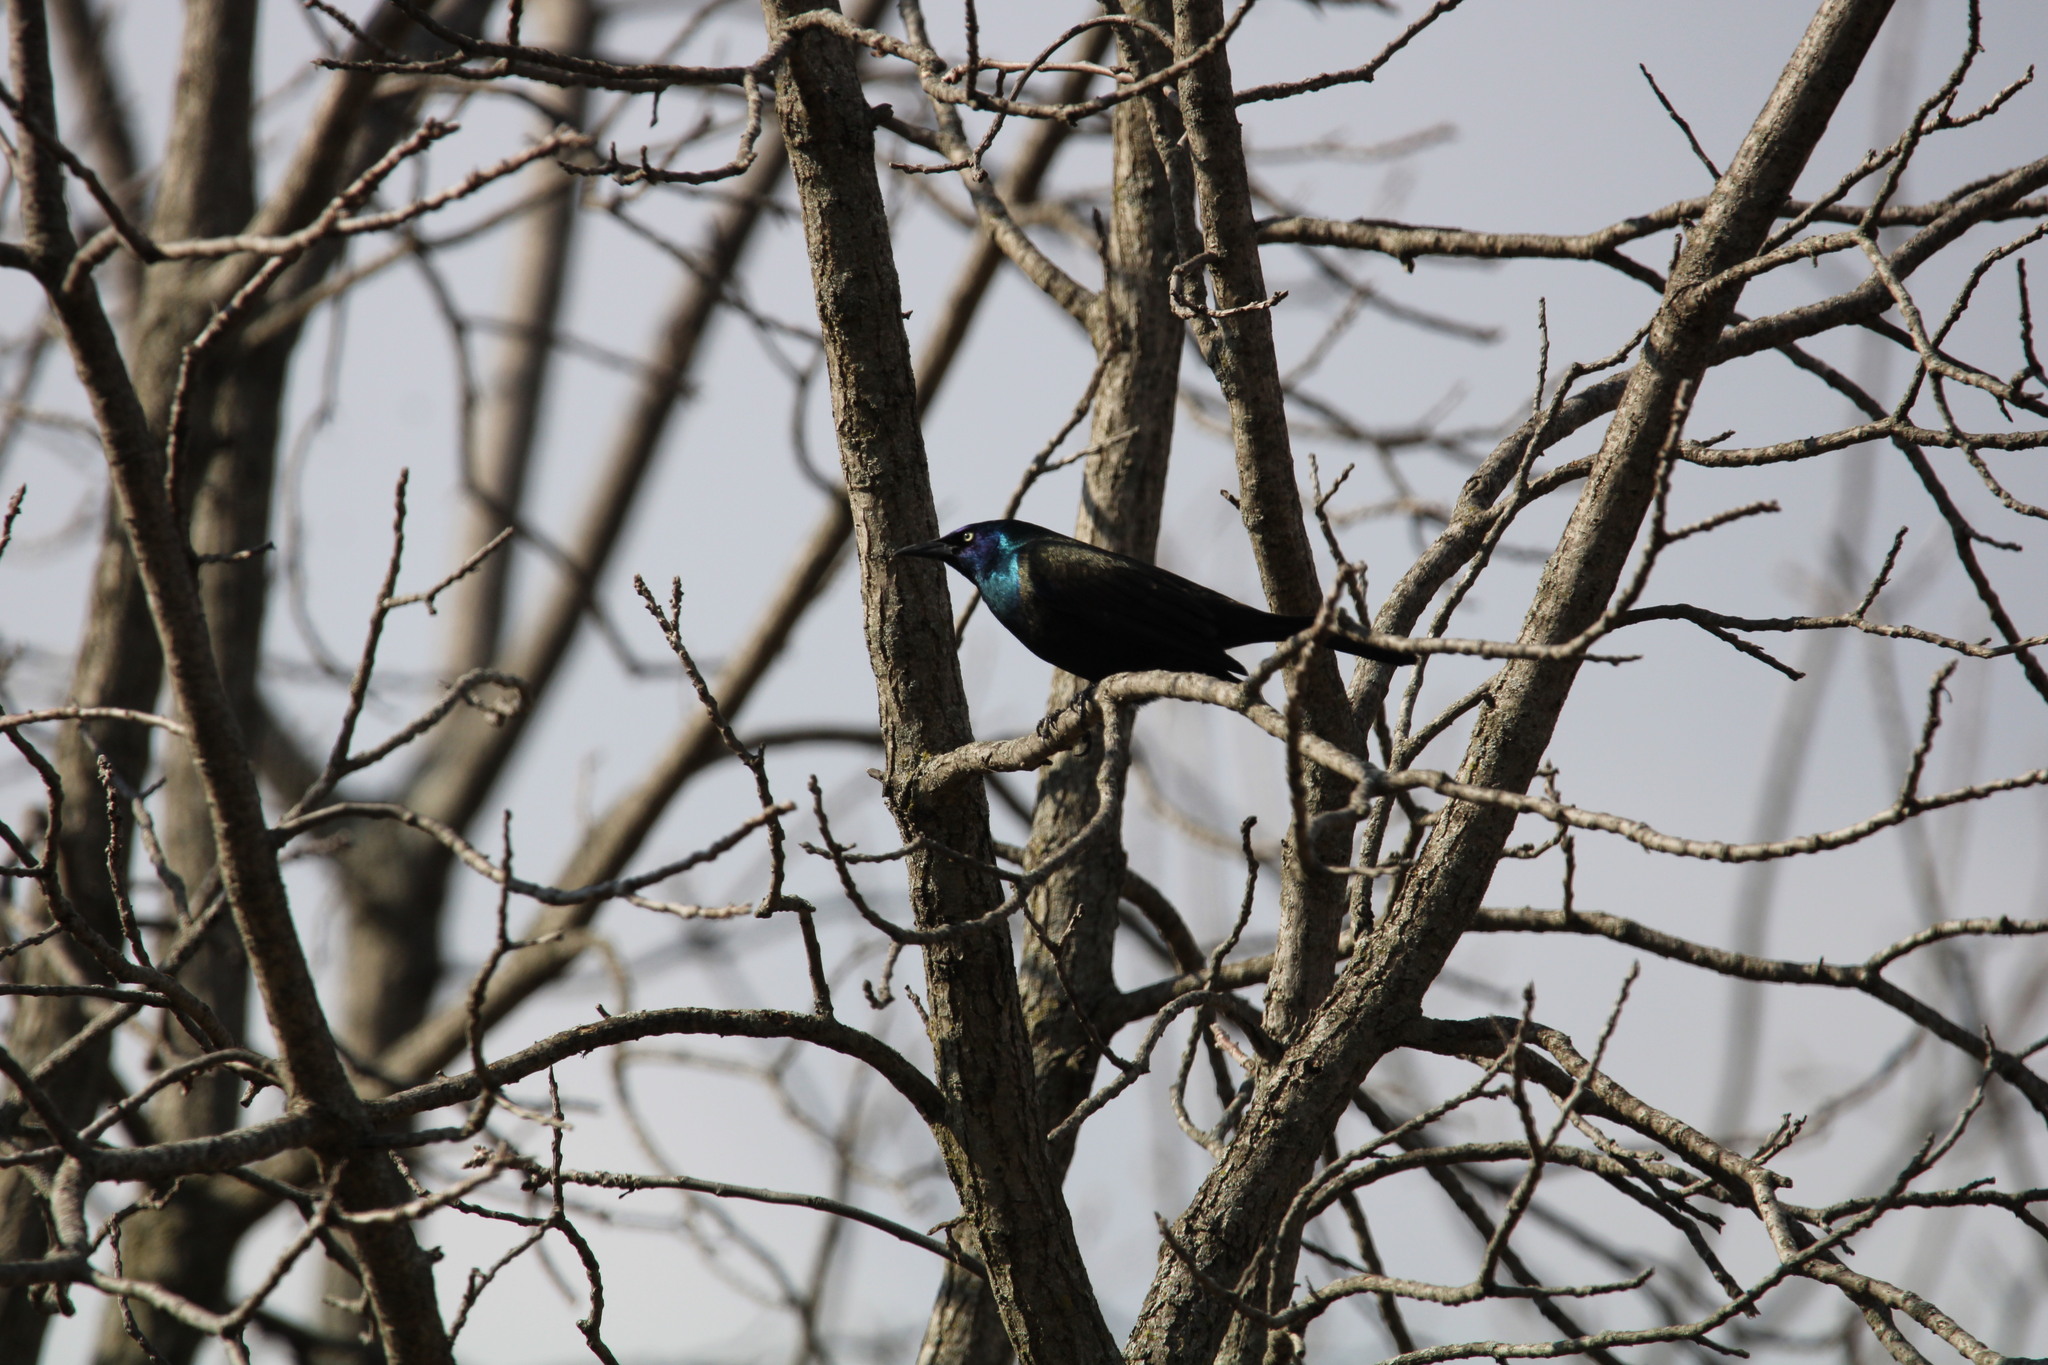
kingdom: Animalia
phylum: Chordata
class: Aves
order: Passeriformes
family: Icteridae
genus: Quiscalus
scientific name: Quiscalus quiscula
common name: Common grackle
